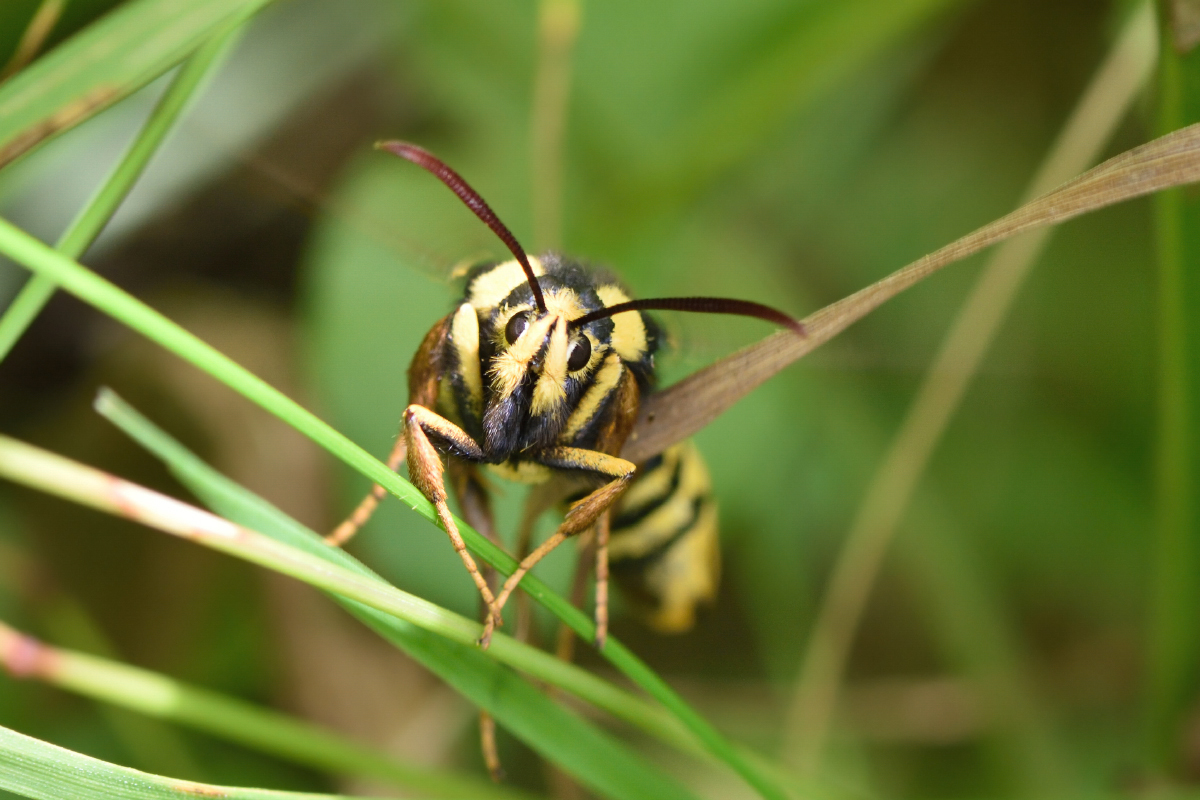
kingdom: Animalia
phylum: Arthropoda
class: Insecta
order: Lepidoptera
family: Sesiidae
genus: Sesia
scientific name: Sesia apiformis
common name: Hornet moth
